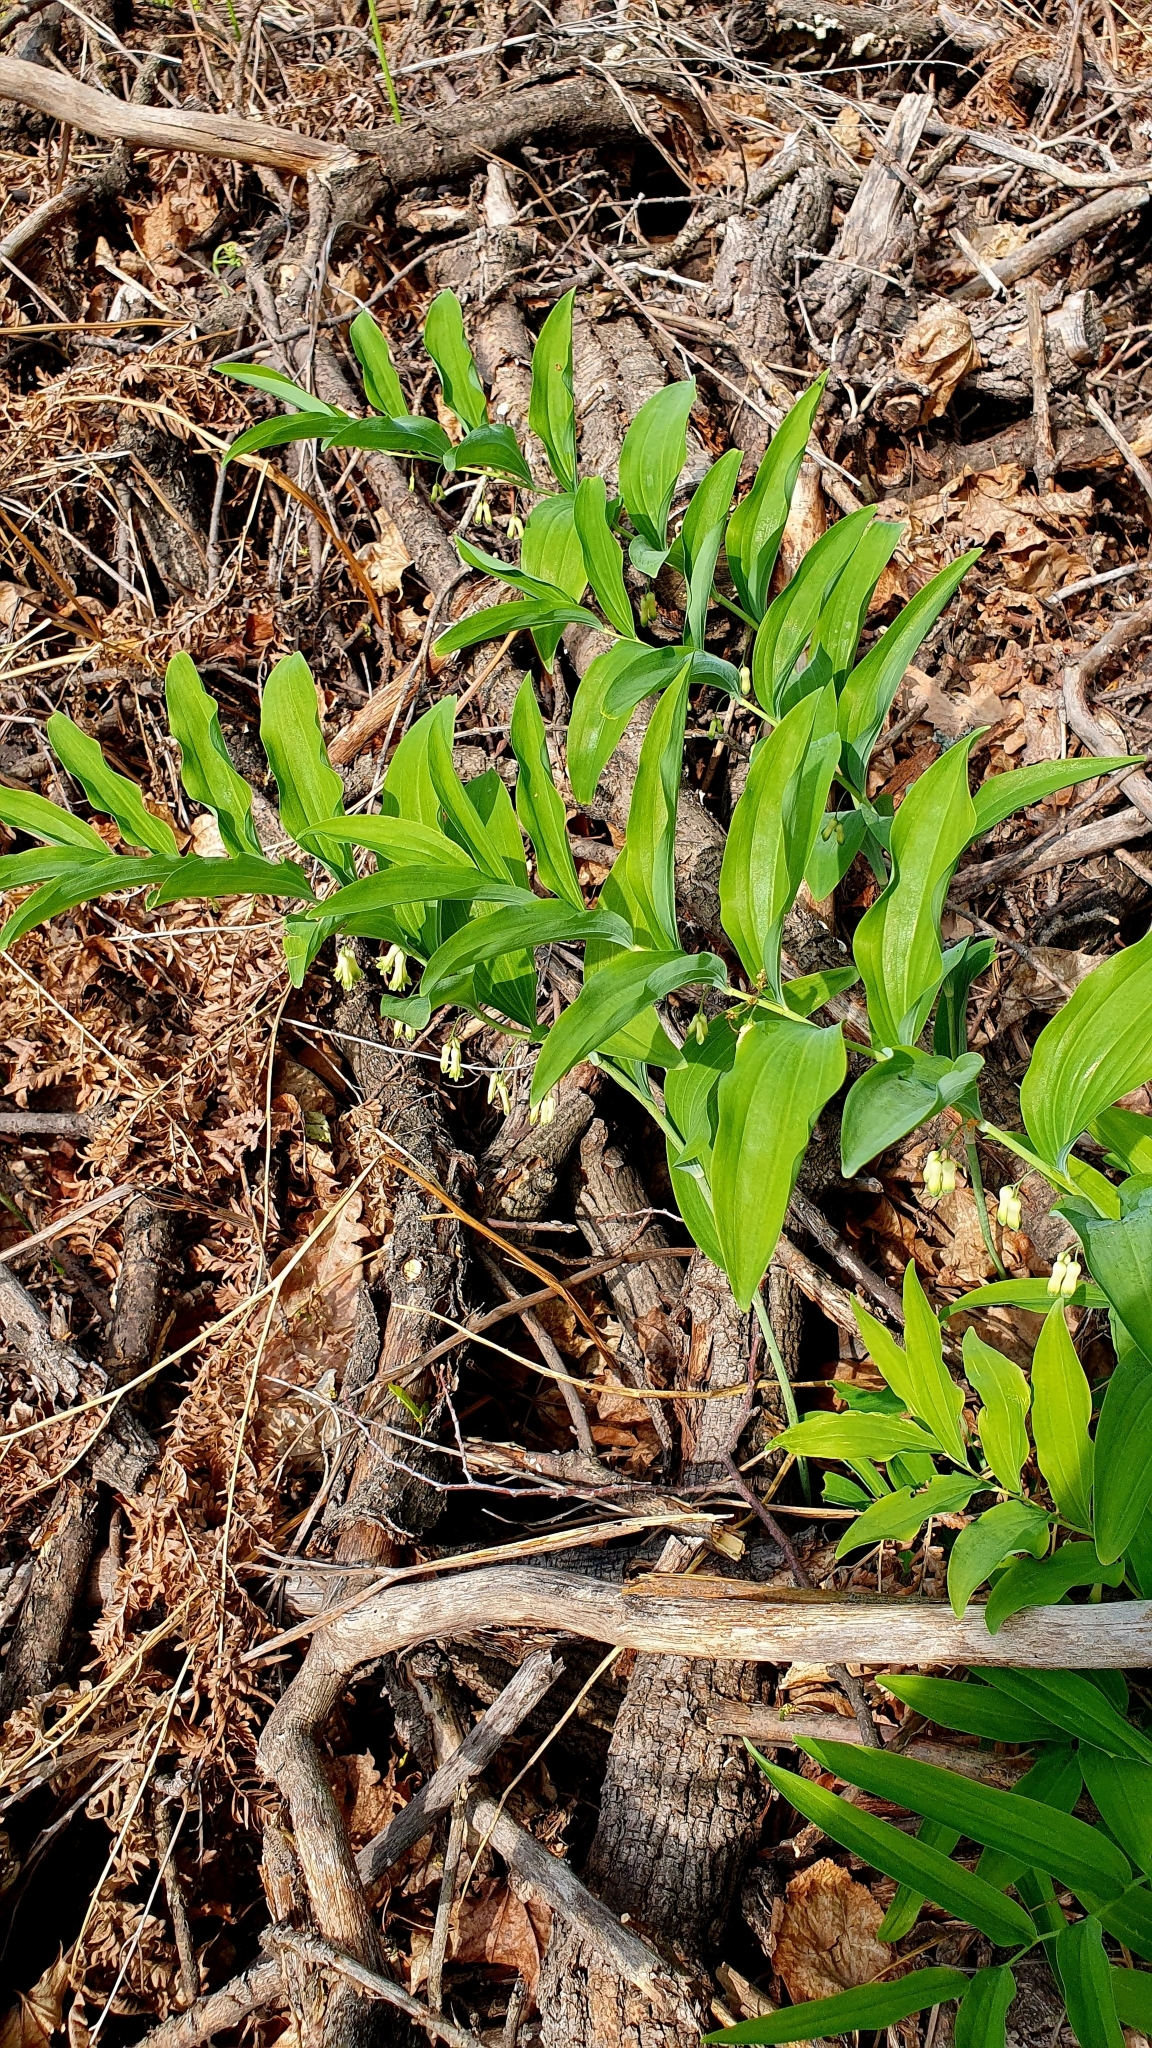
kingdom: Plantae
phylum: Tracheophyta
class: Liliopsida
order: Asparagales
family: Asparagaceae
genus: Polygonatum
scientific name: Polygonatum multiflorum
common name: Solomon's-seal
